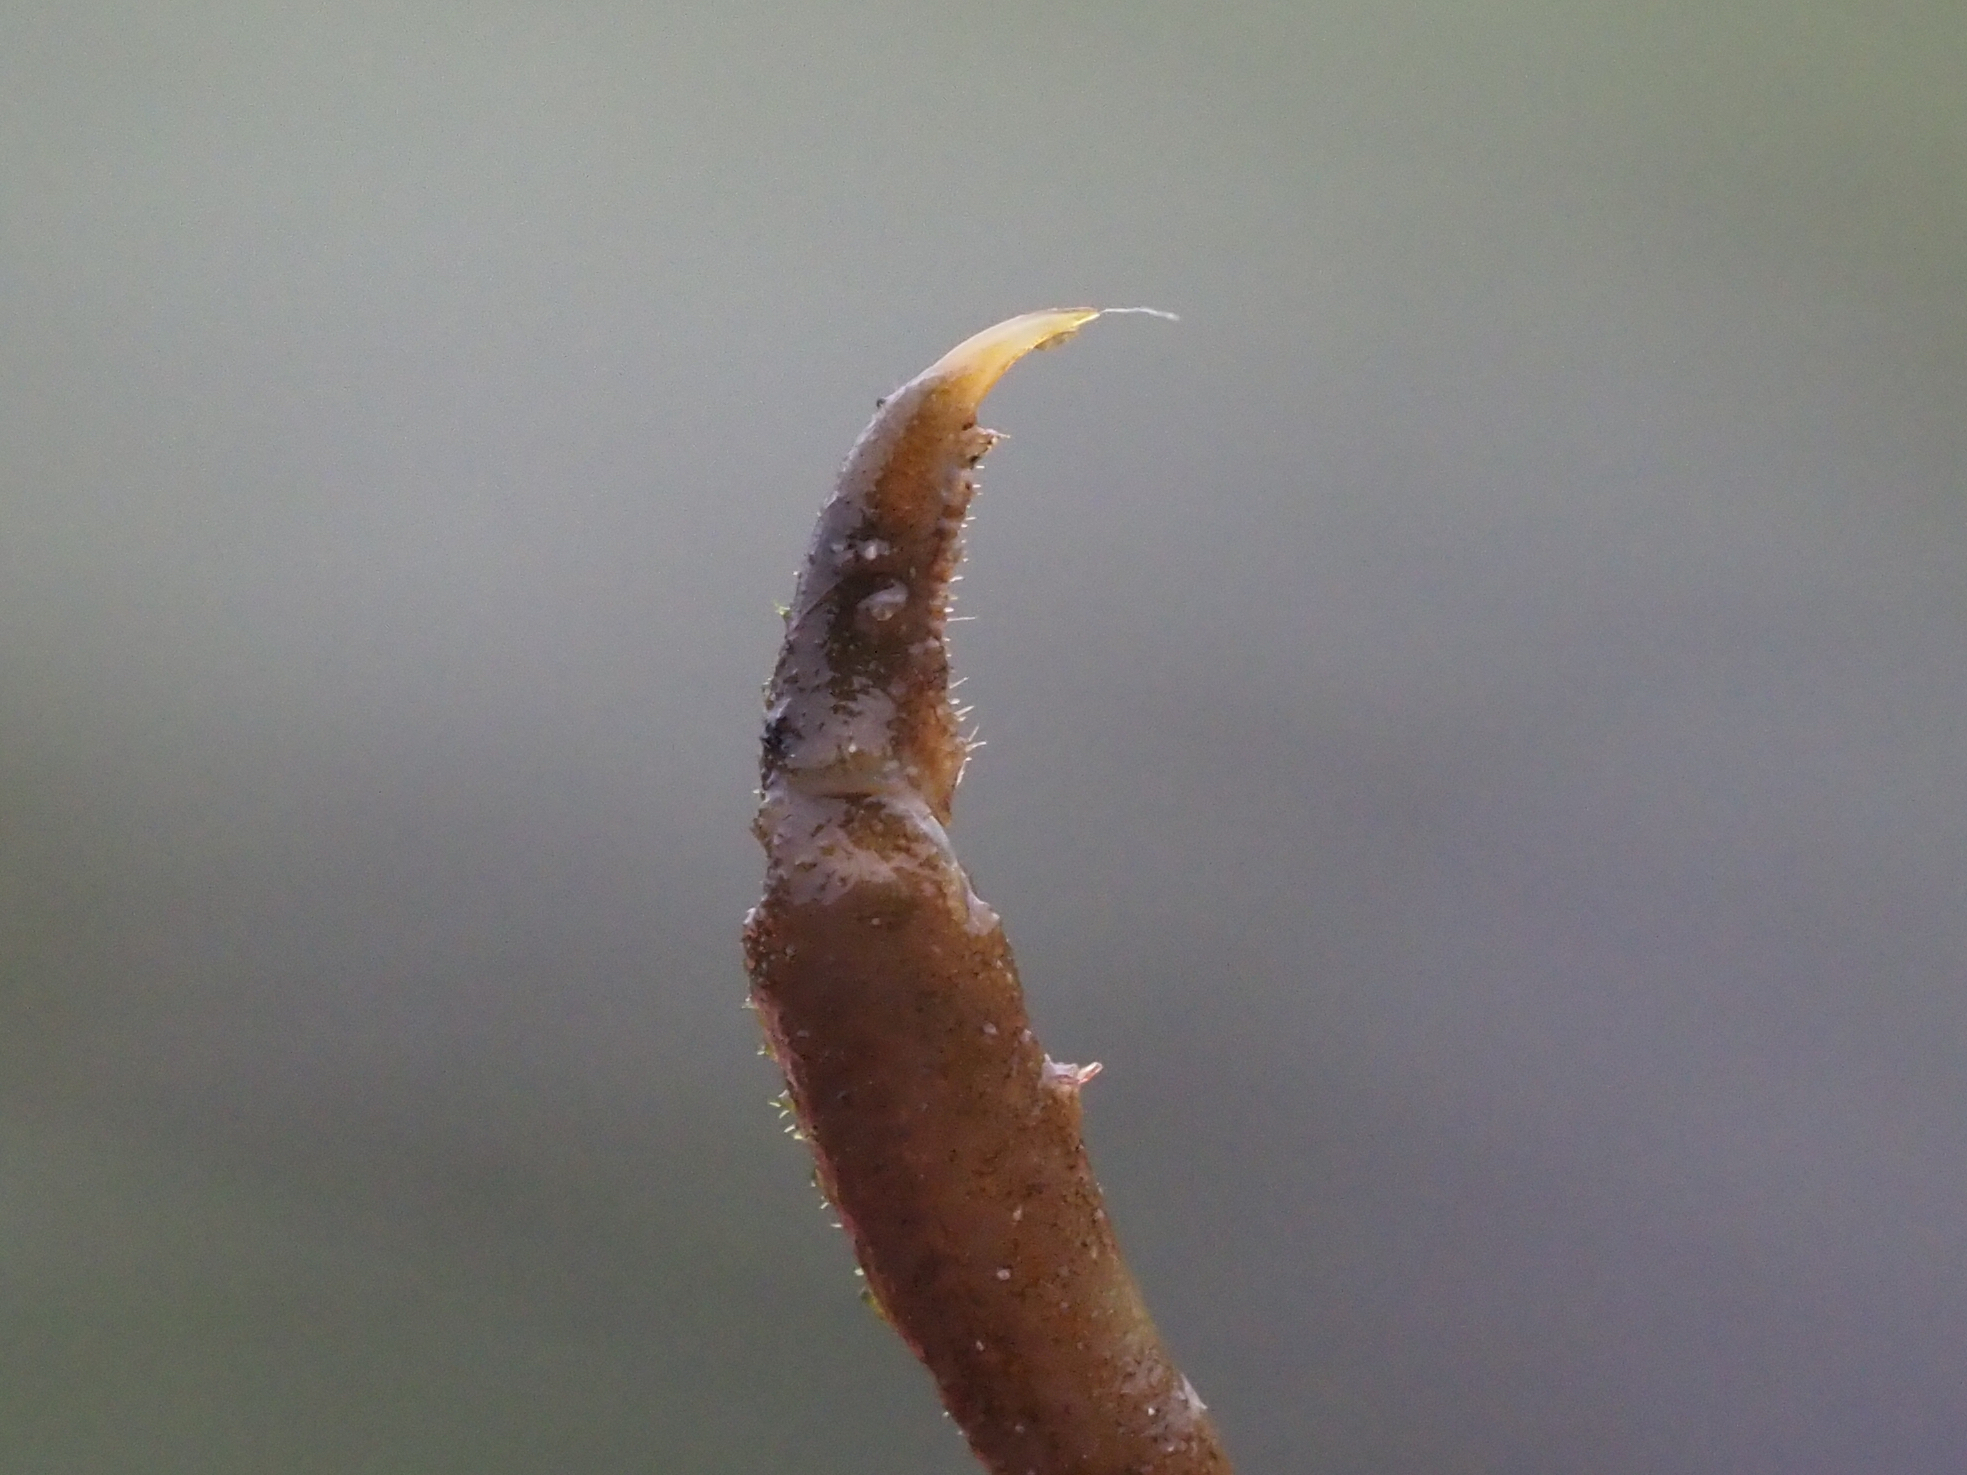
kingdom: Animalia
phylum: Arthropoda
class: Malacostraca
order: Decapoda
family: Epialtidae
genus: Pugettia
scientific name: Pugettia gracilis
